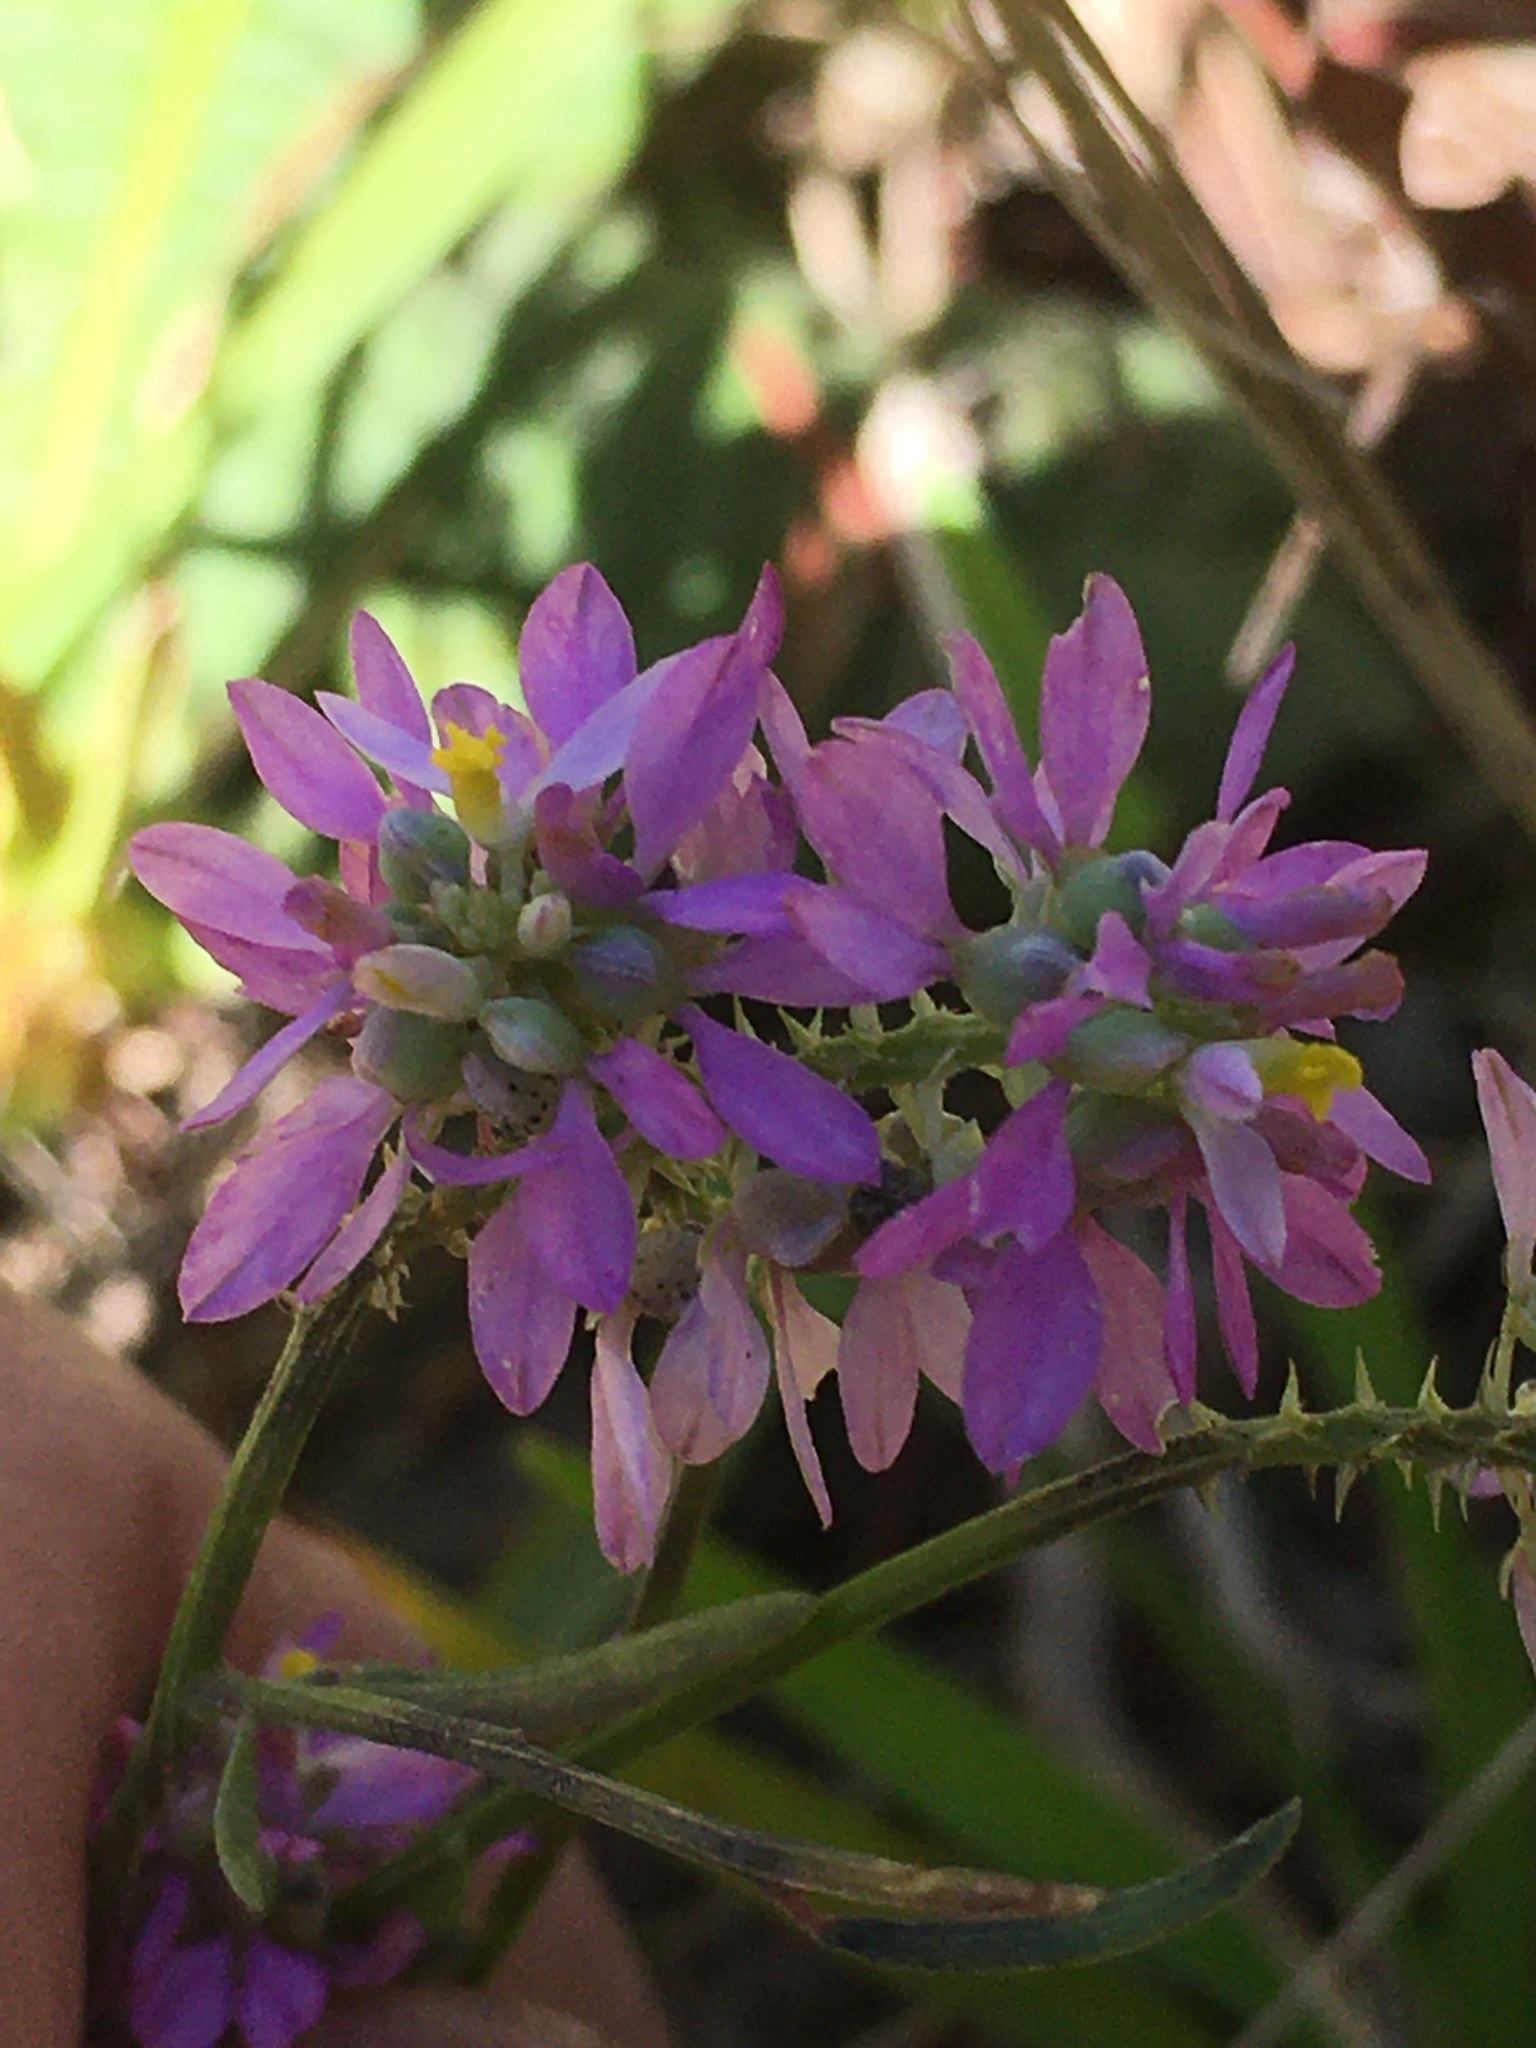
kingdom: Plantae
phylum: Tracheophyta
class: Magnoliopsida
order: Fabales
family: Polygalaceae
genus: Polygala
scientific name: Polygala curtissii
